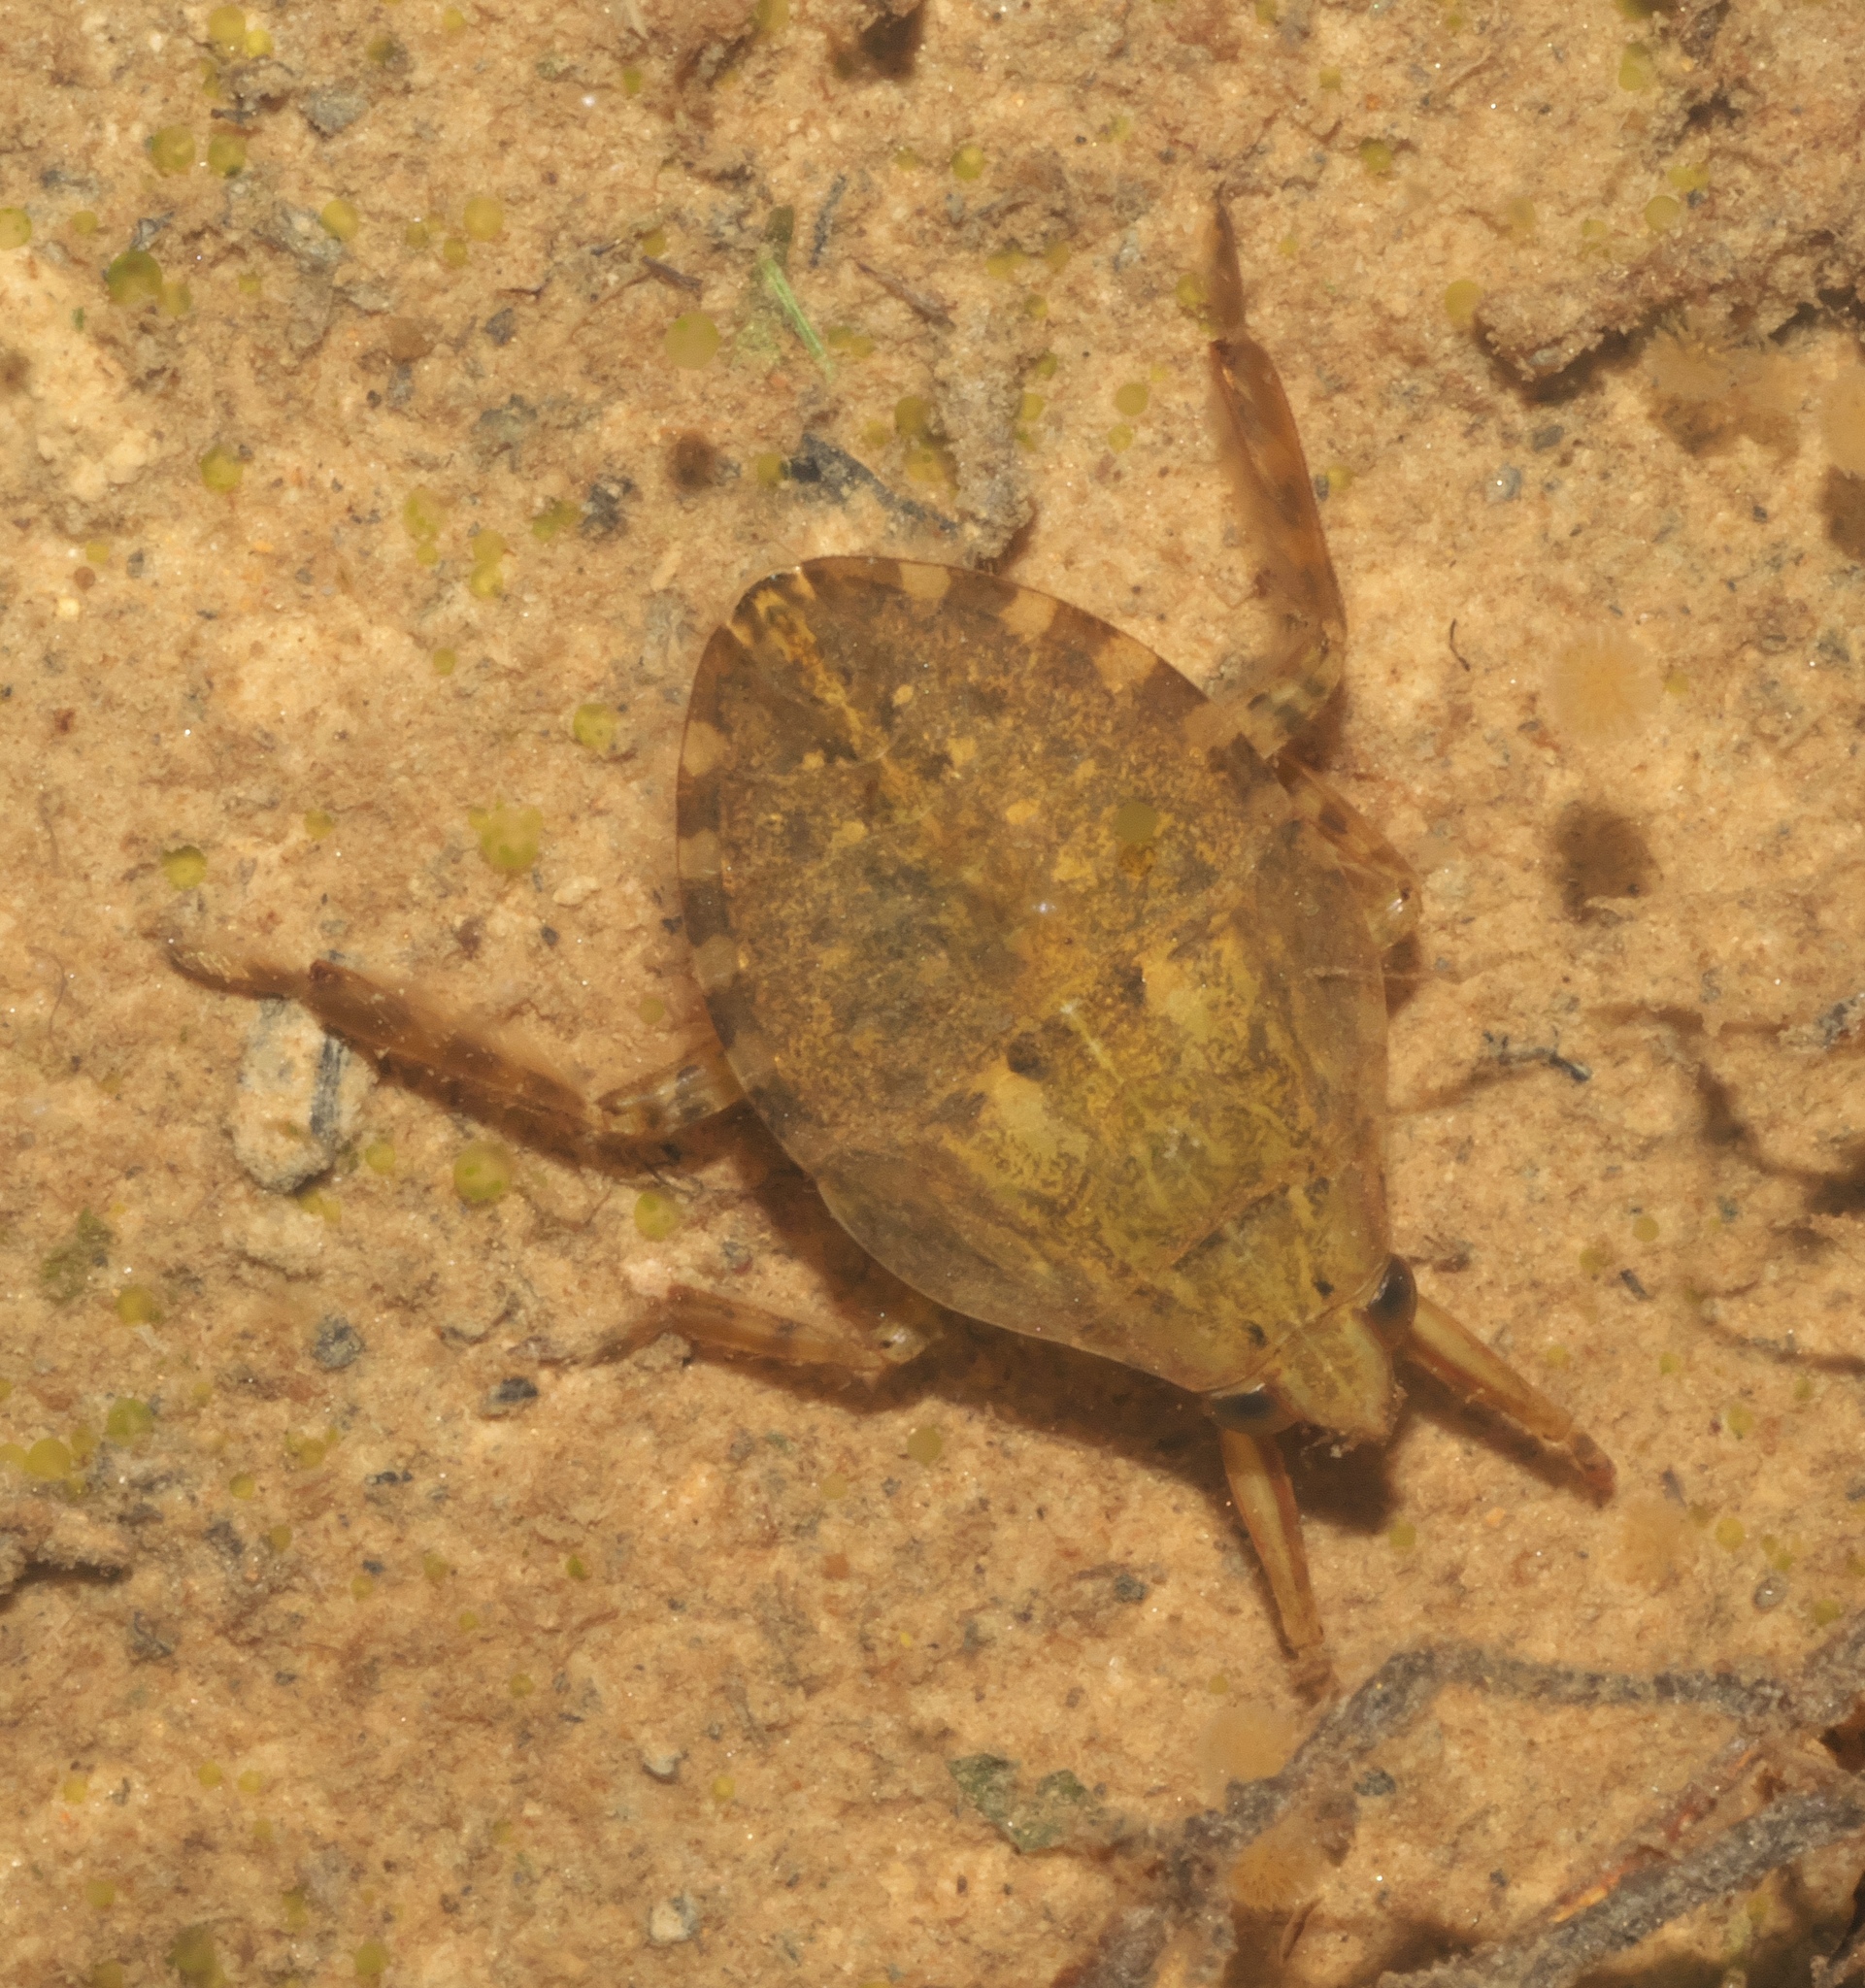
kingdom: Animalia
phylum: Arthropoda
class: Insecta
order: Hemiptera
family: Belostomatidae
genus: Belostoma
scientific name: Belostoma
